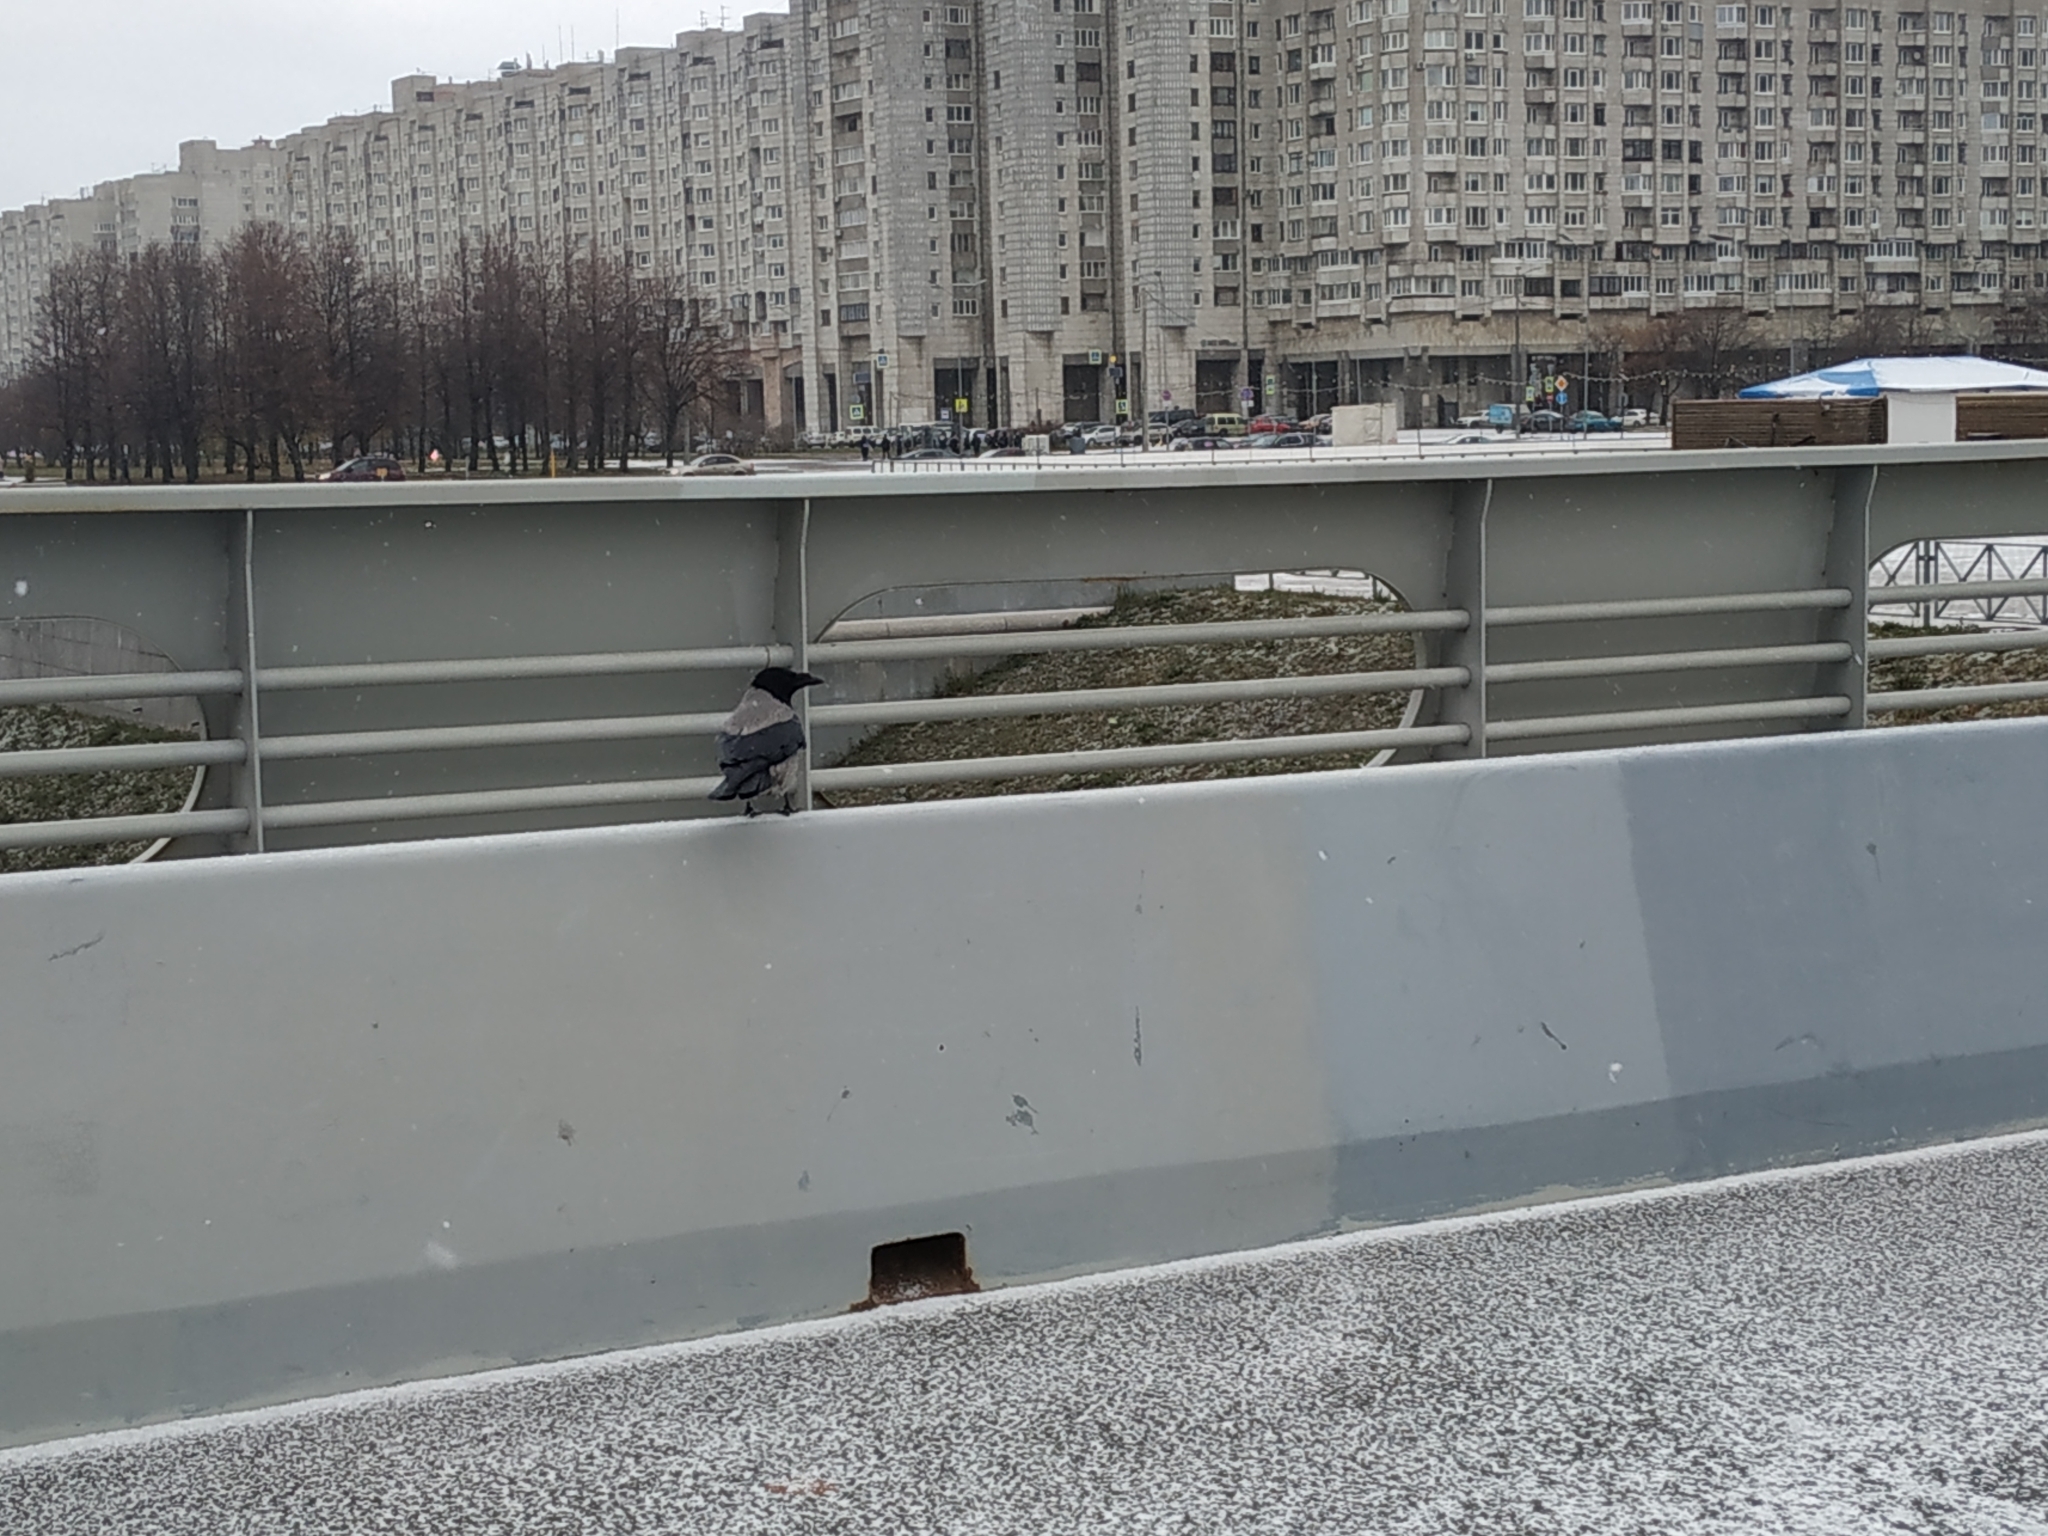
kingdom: Animalia
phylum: Chordata
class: Aves
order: Passeriformes
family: Corvidae
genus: Corvus
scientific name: Corvus cornix
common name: Hooded crow
